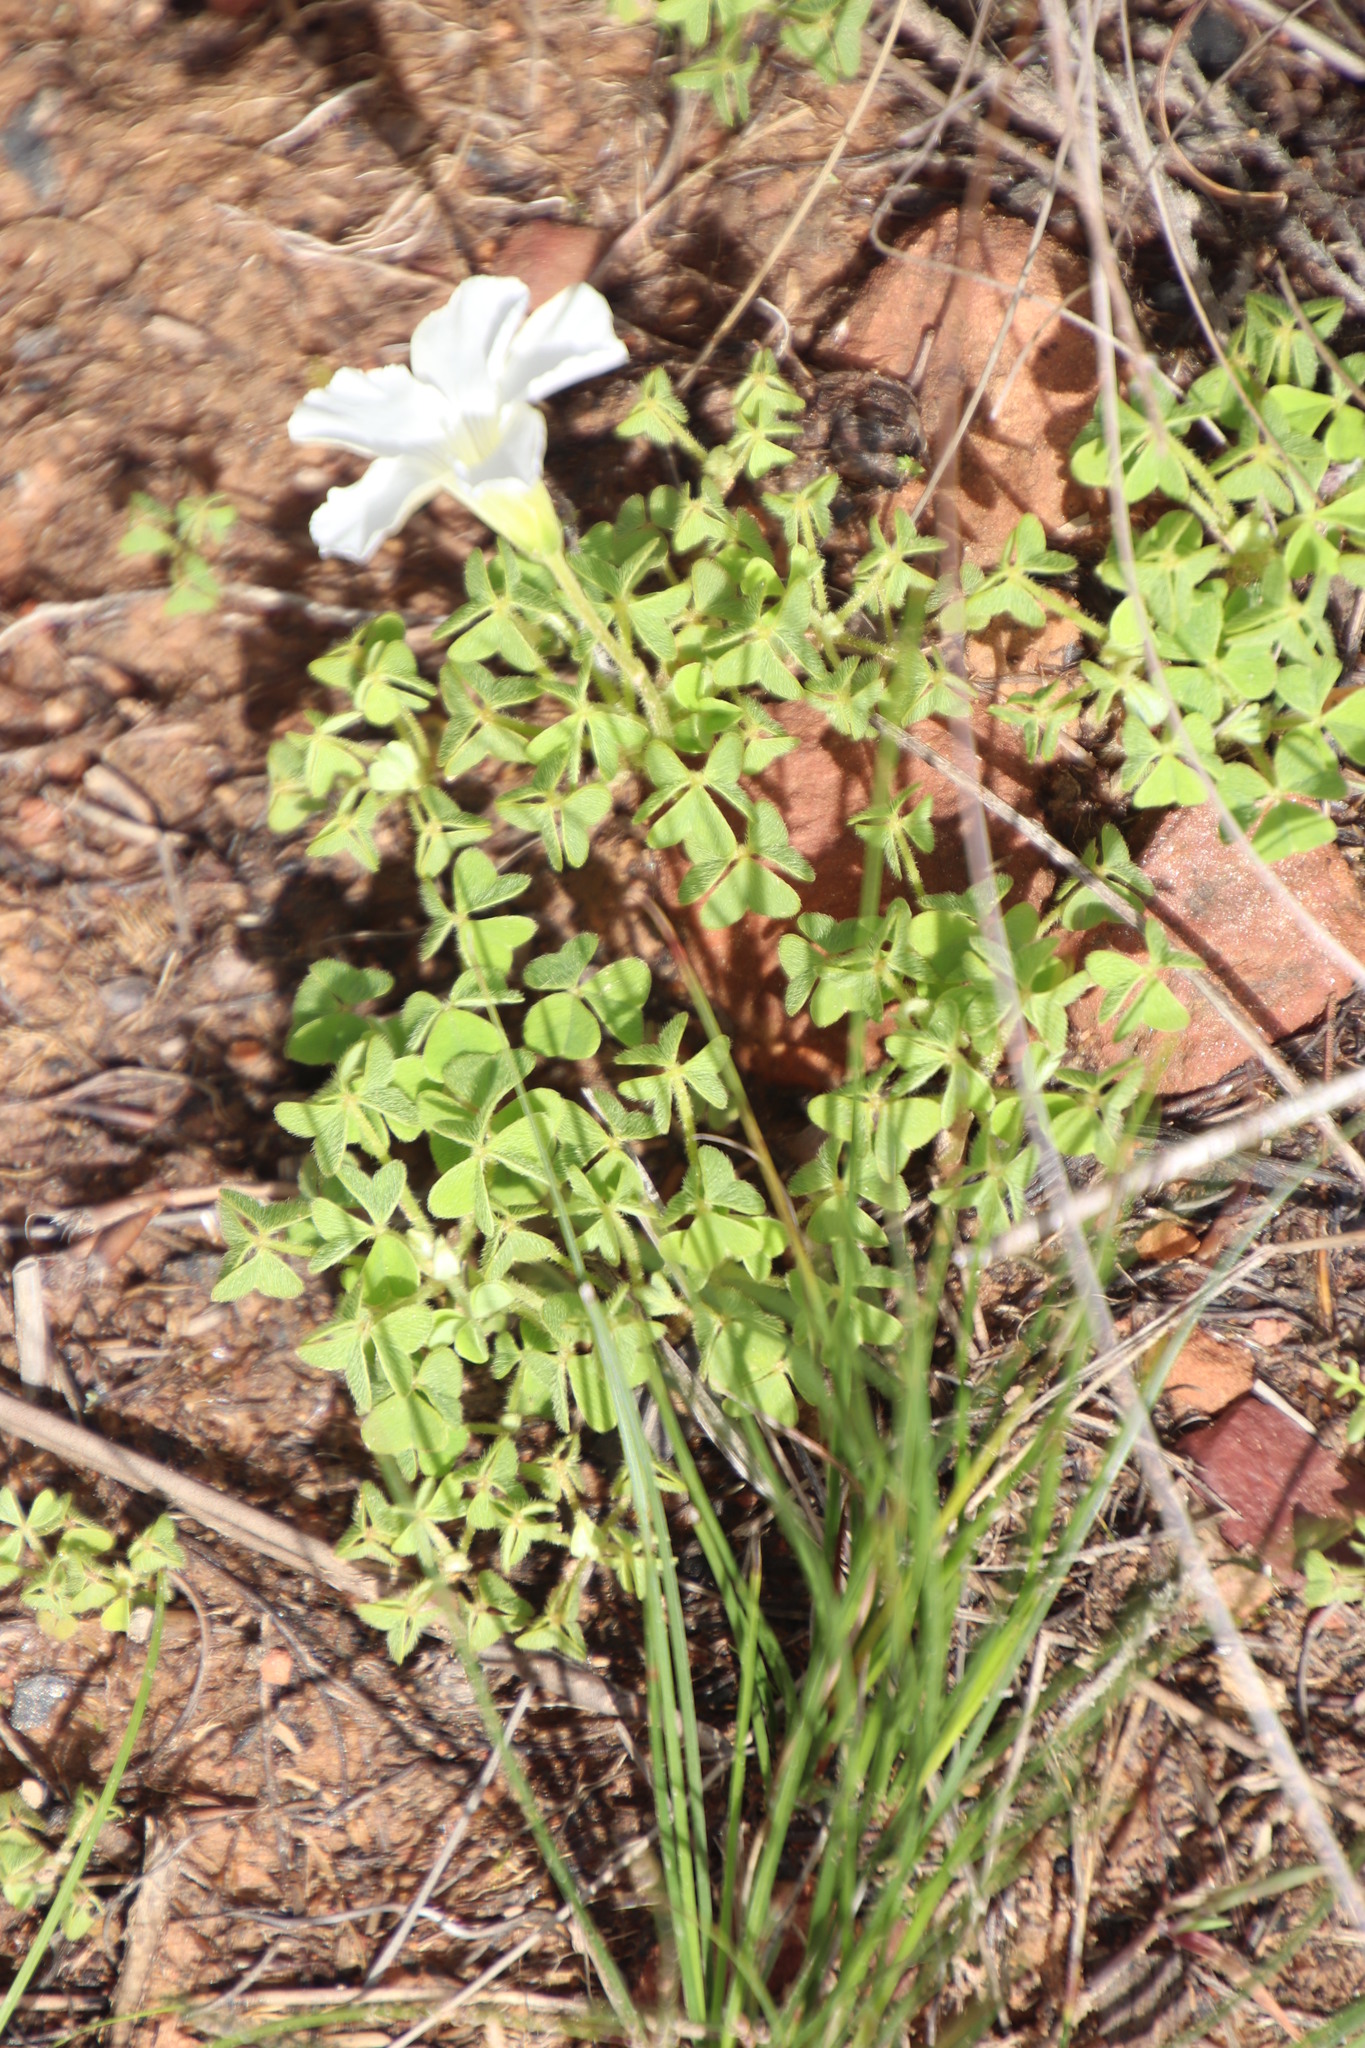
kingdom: Plantae
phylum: Tracheophyta
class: Magnoliopsida
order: Oxalidales
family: Oxalidaceae
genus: Oxalis
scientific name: Oxalis lanata
